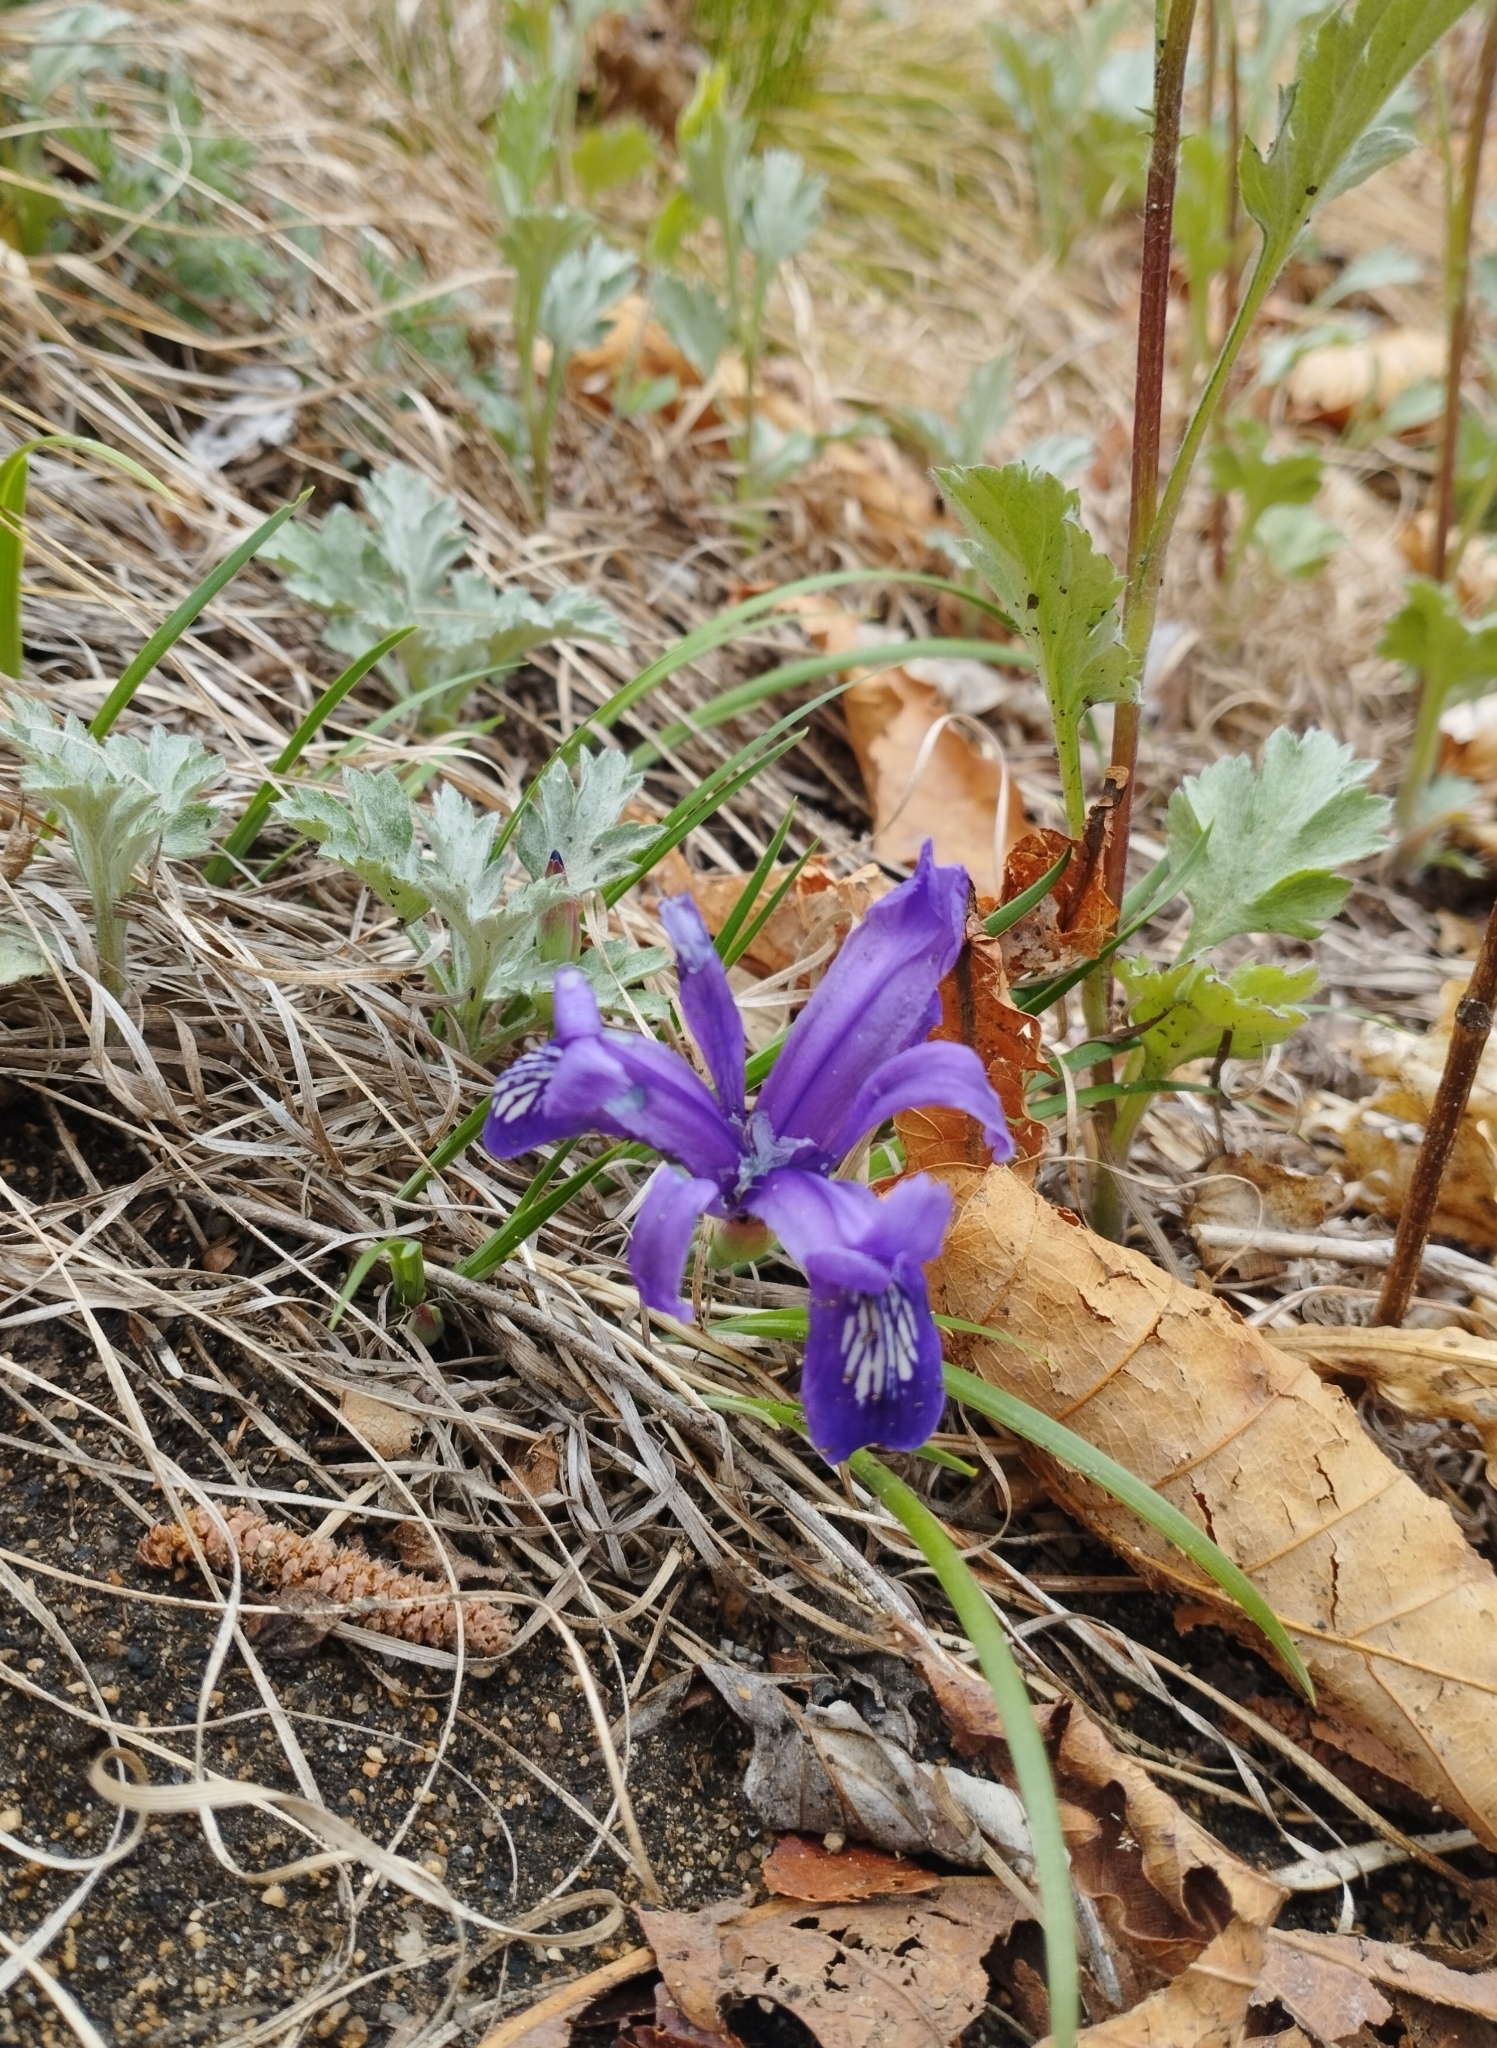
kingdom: Plantae
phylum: Tracheophyta
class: Liliopsida
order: Asparagales
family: Iridaceae
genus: Iris
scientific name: Iris uniflora
